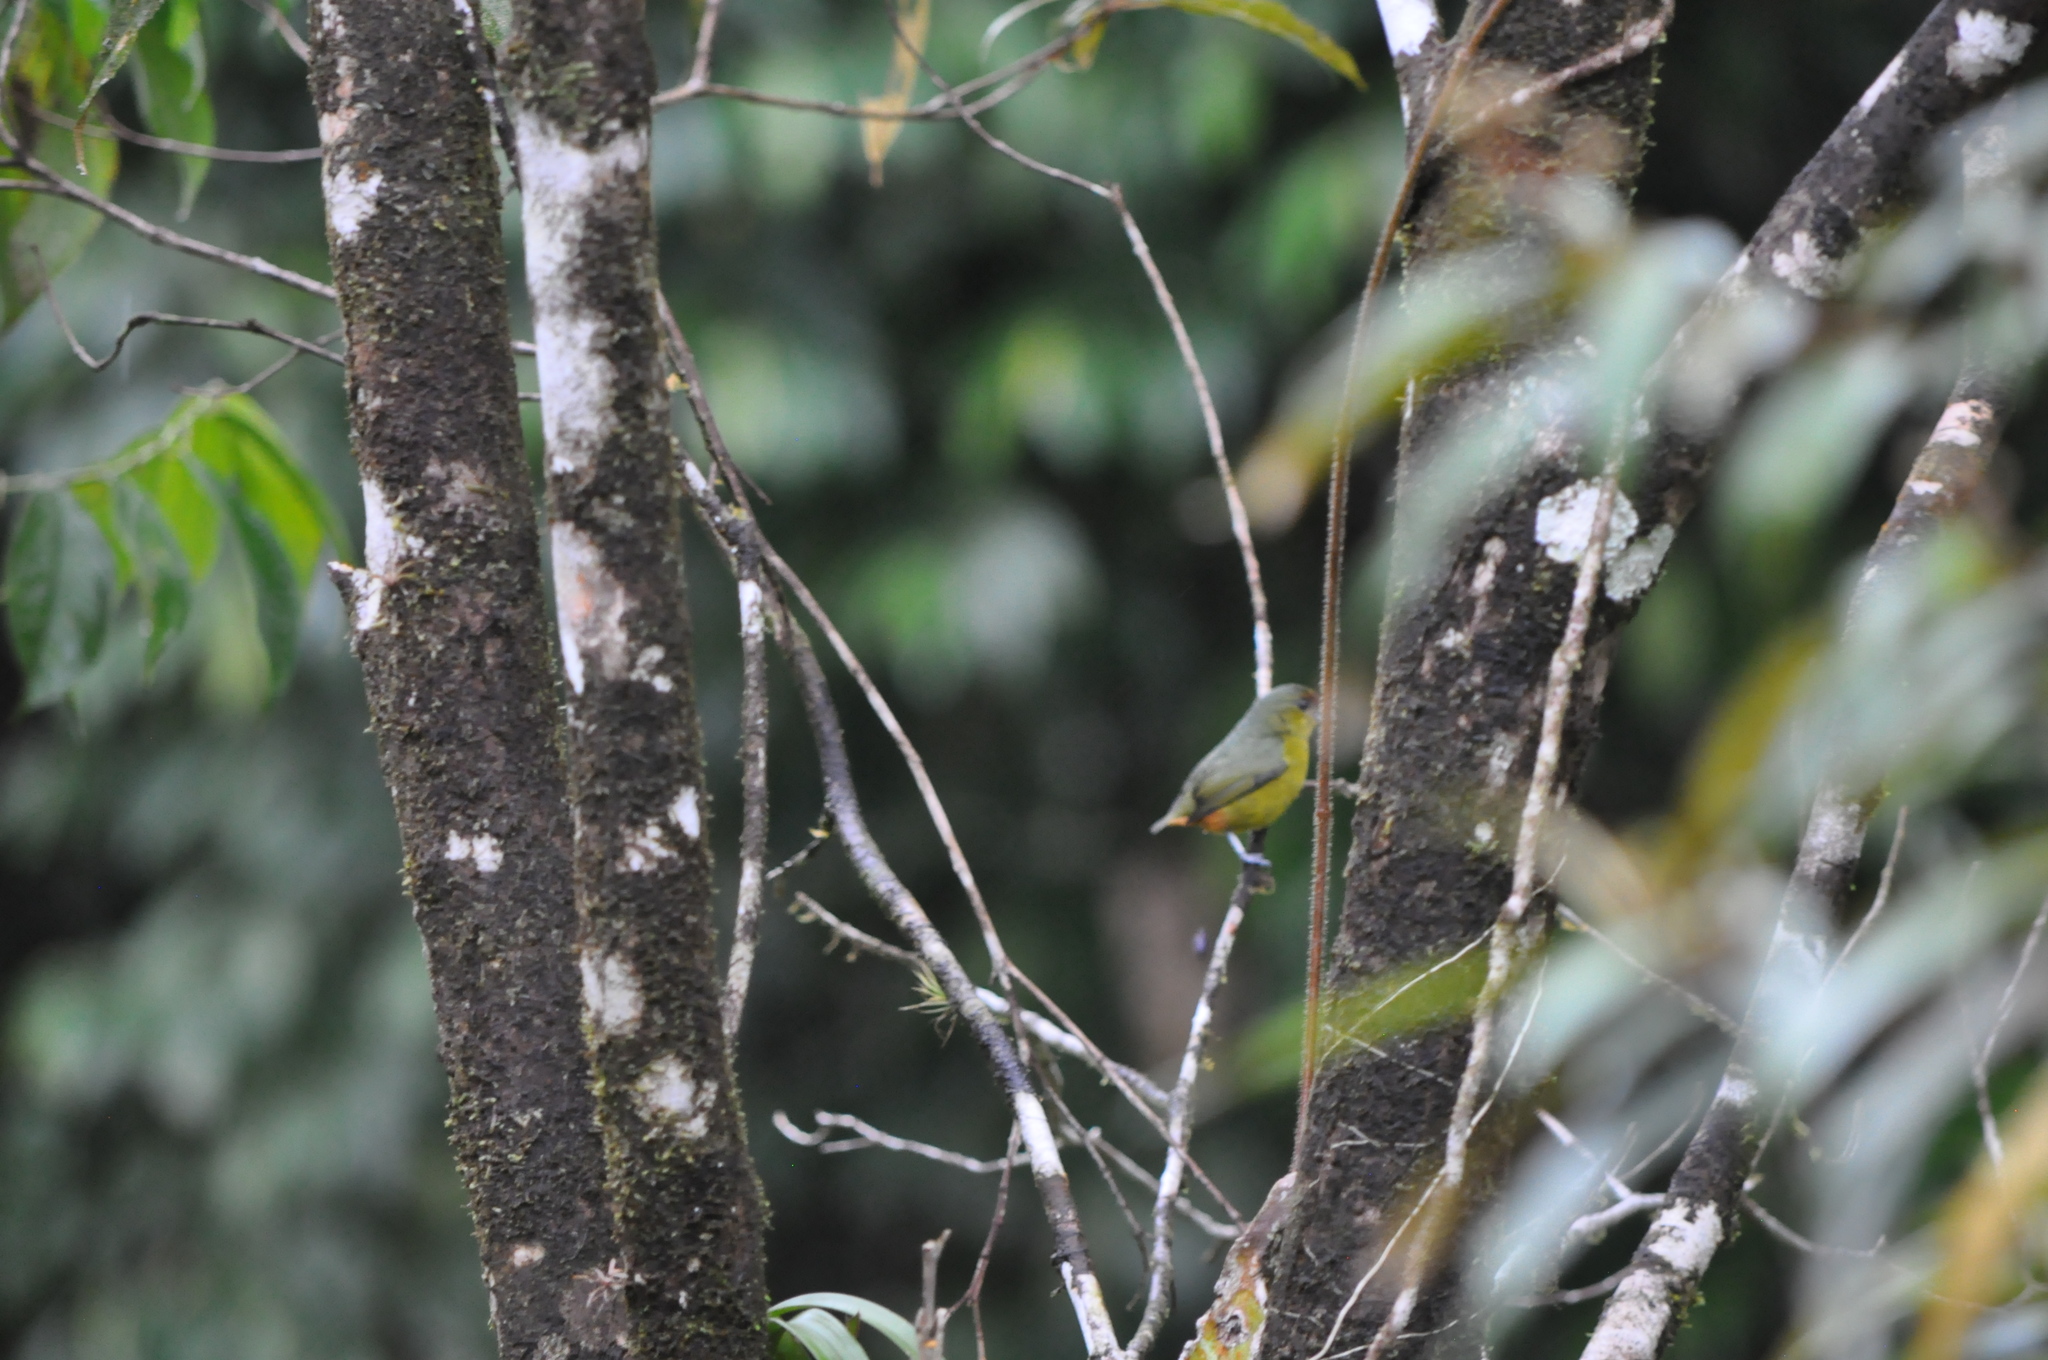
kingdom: Animalia
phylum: Chordata
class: Aves
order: Passeriformes
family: Fringillidae
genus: Euphonia
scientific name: Euphonia gouldi
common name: Olive-backed euphonia
